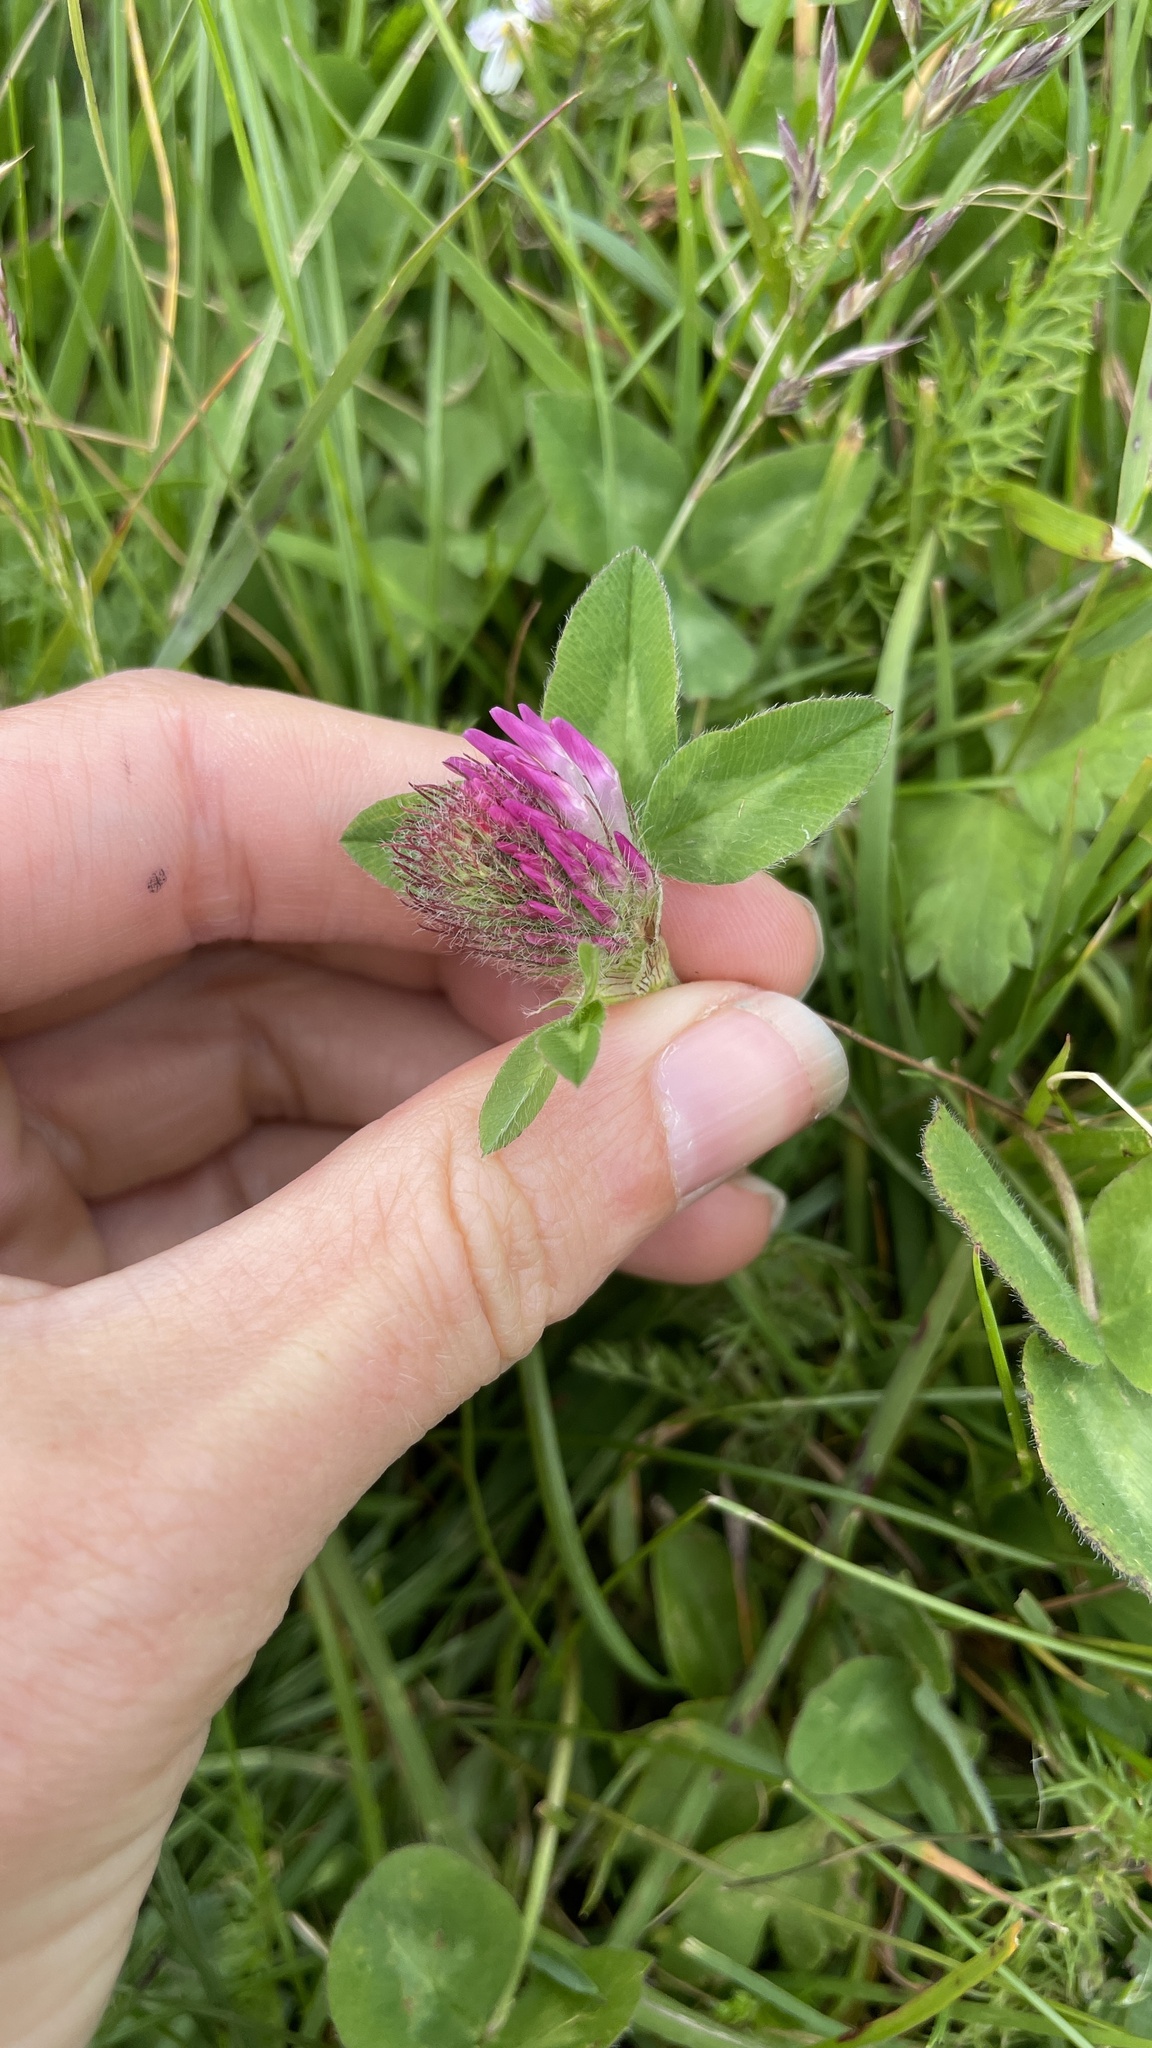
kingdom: Plantae
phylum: Tracheophyta
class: Magnoliopsida
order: Fabales
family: Fabaceae
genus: Trifolium
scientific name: Trifolium pratense
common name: Red clover
